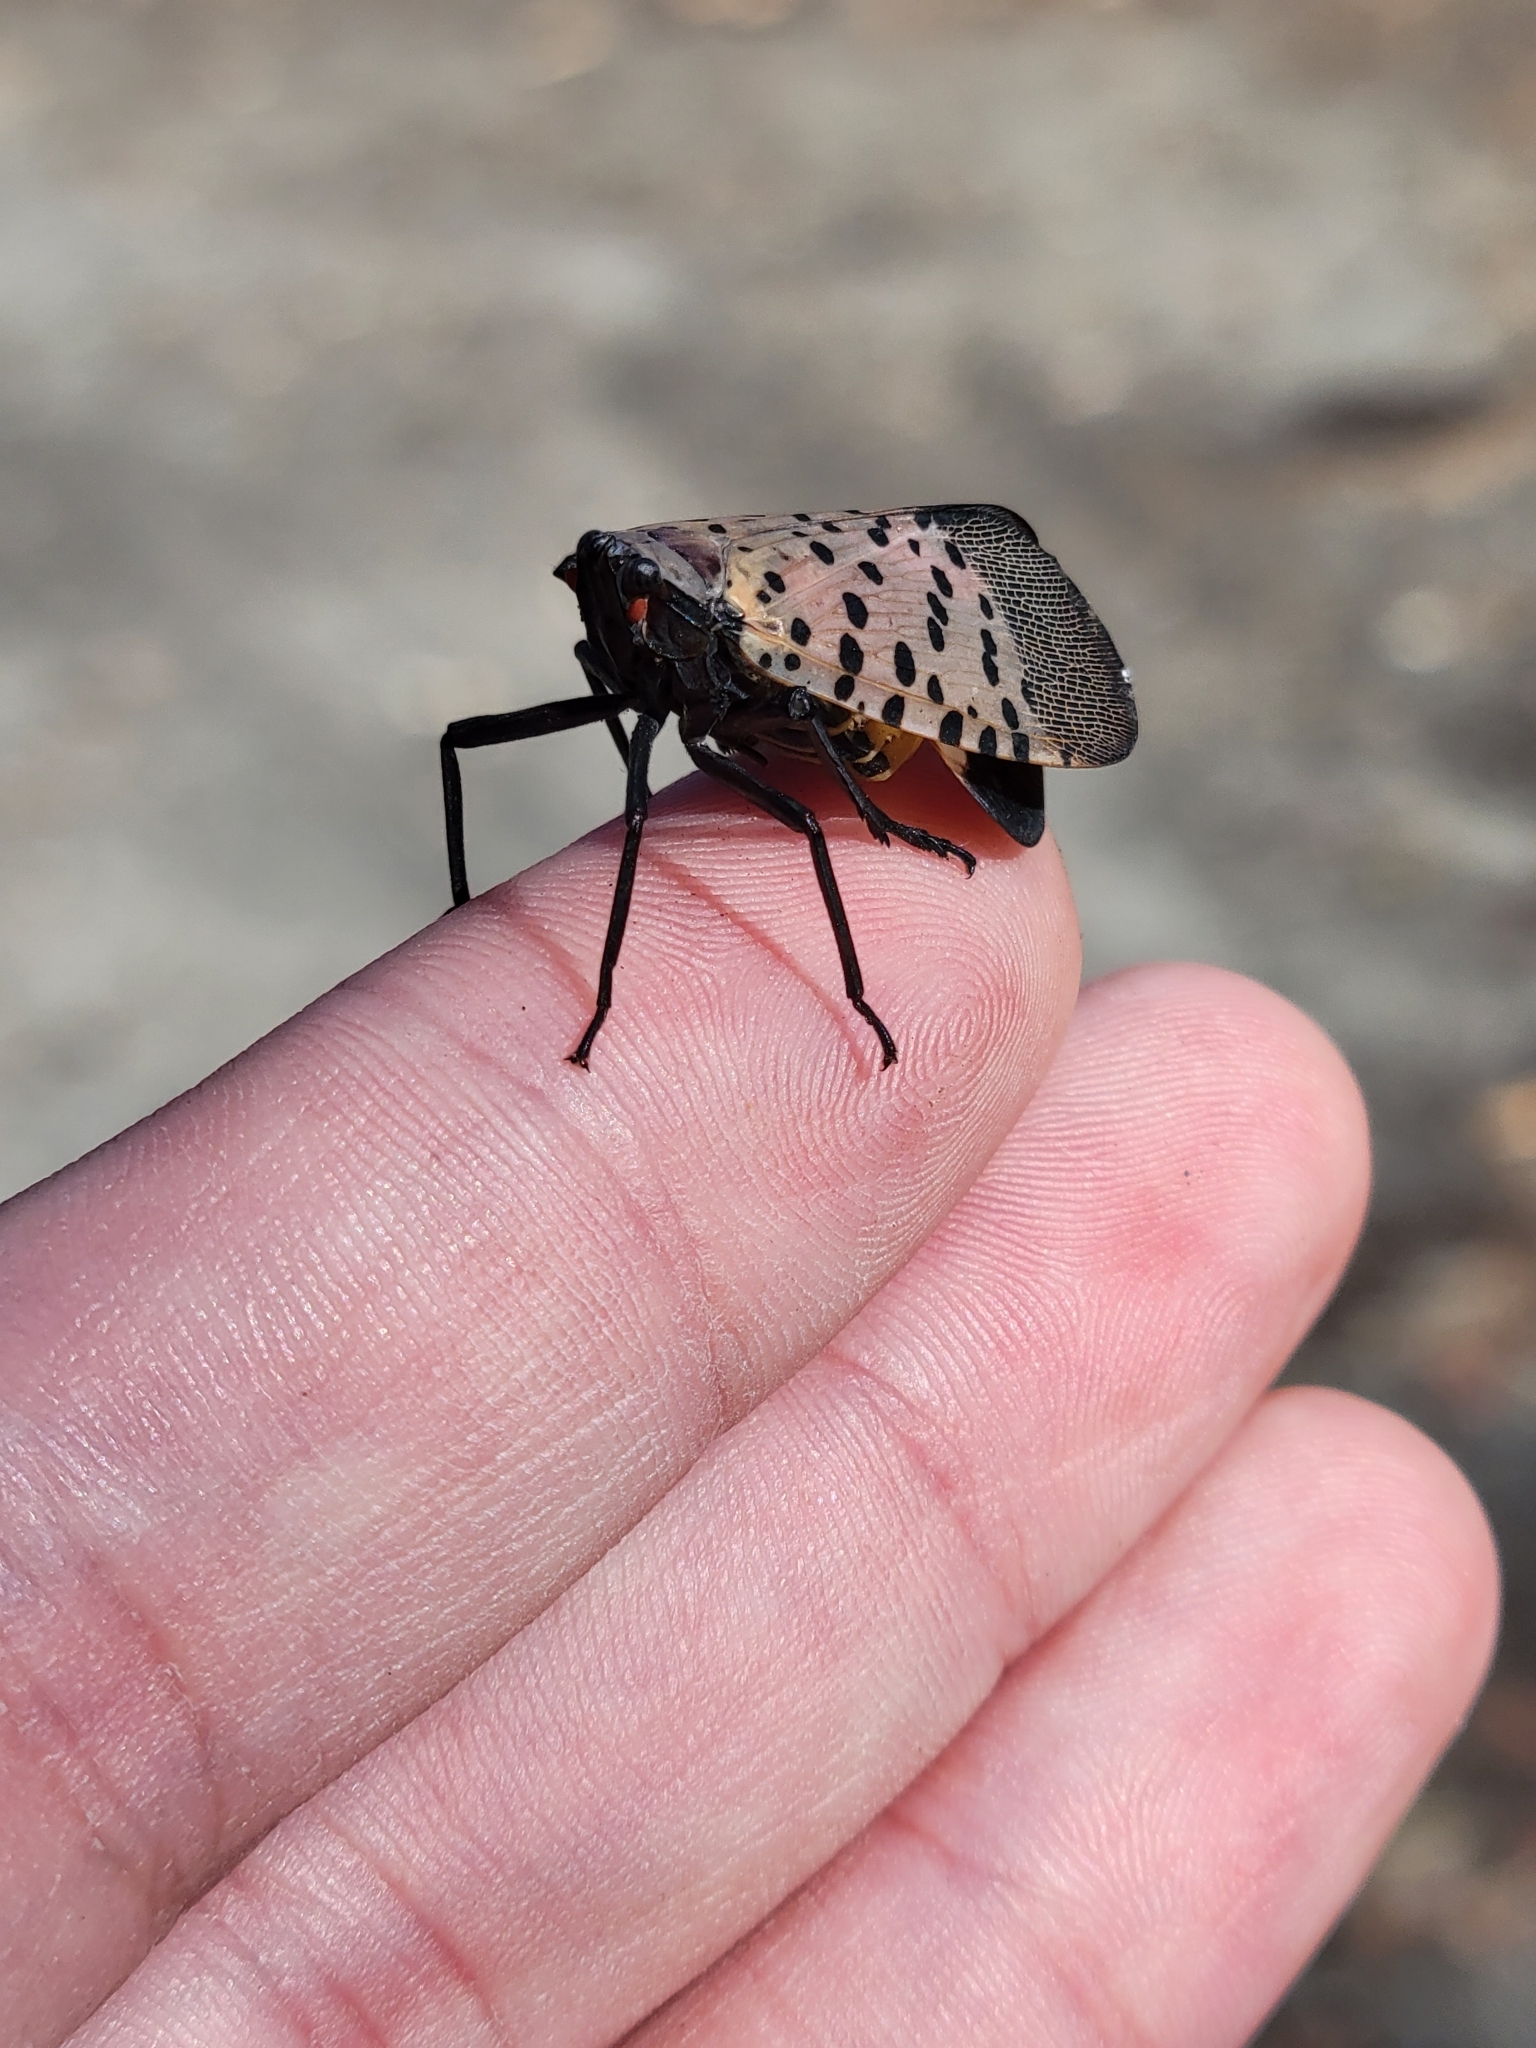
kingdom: Animalia
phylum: Arthropoda
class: Insecta
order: Hemiptera
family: Fulgoridae
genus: Lycorma
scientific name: Lycorma delicatula
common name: Spotted lanternfly
